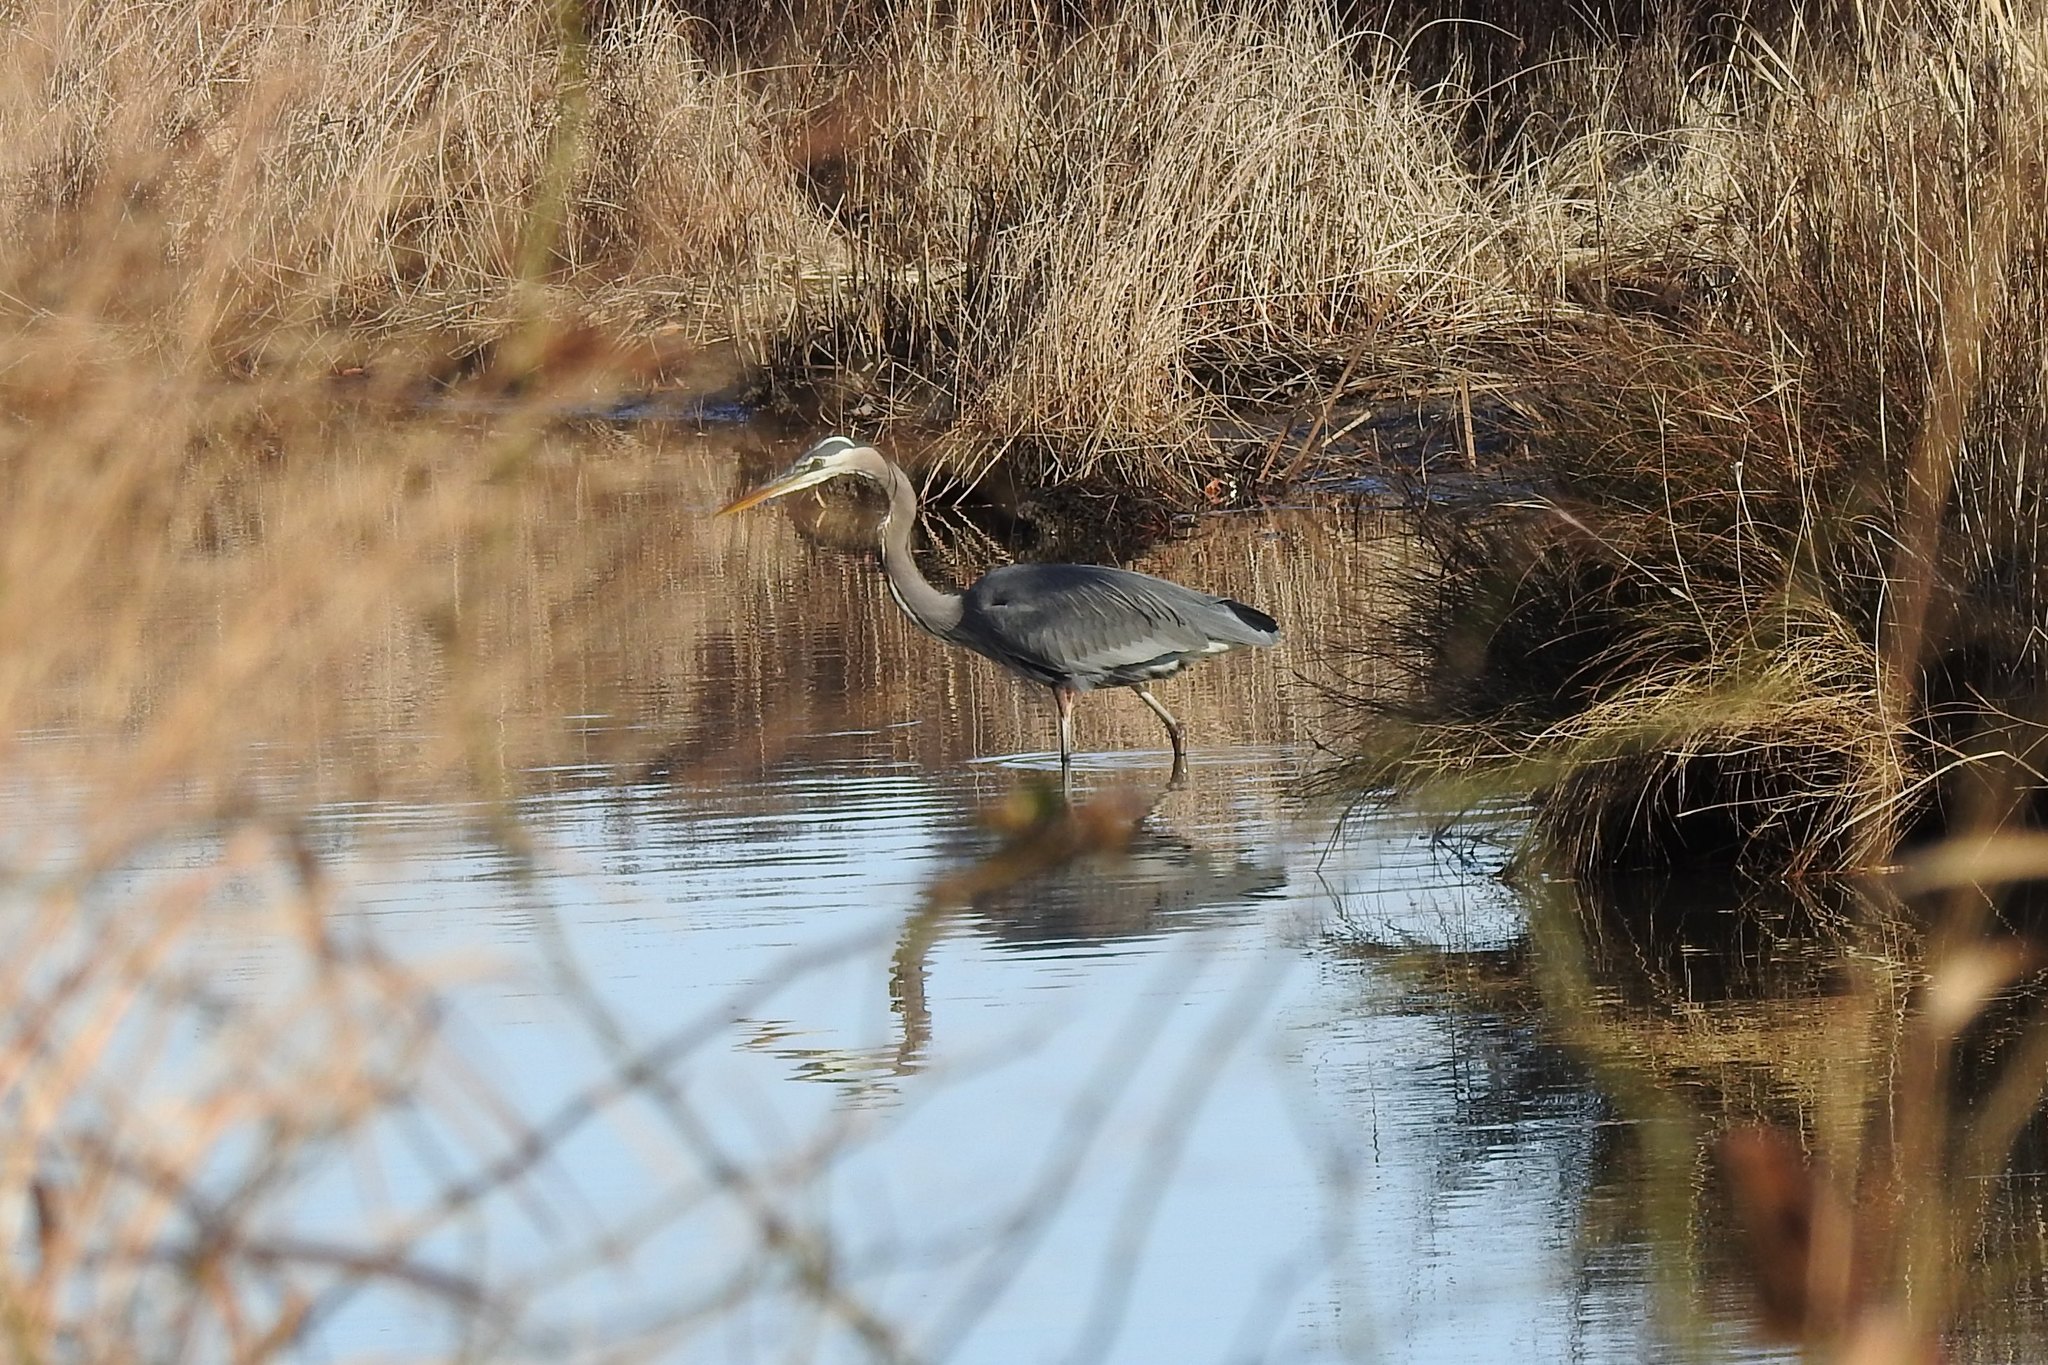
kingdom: Animalia
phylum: Chordata
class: Aves
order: Pelecaniformes
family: Ardeidae
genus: Ardea
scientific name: Ardea herodias
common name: Great blue heron
